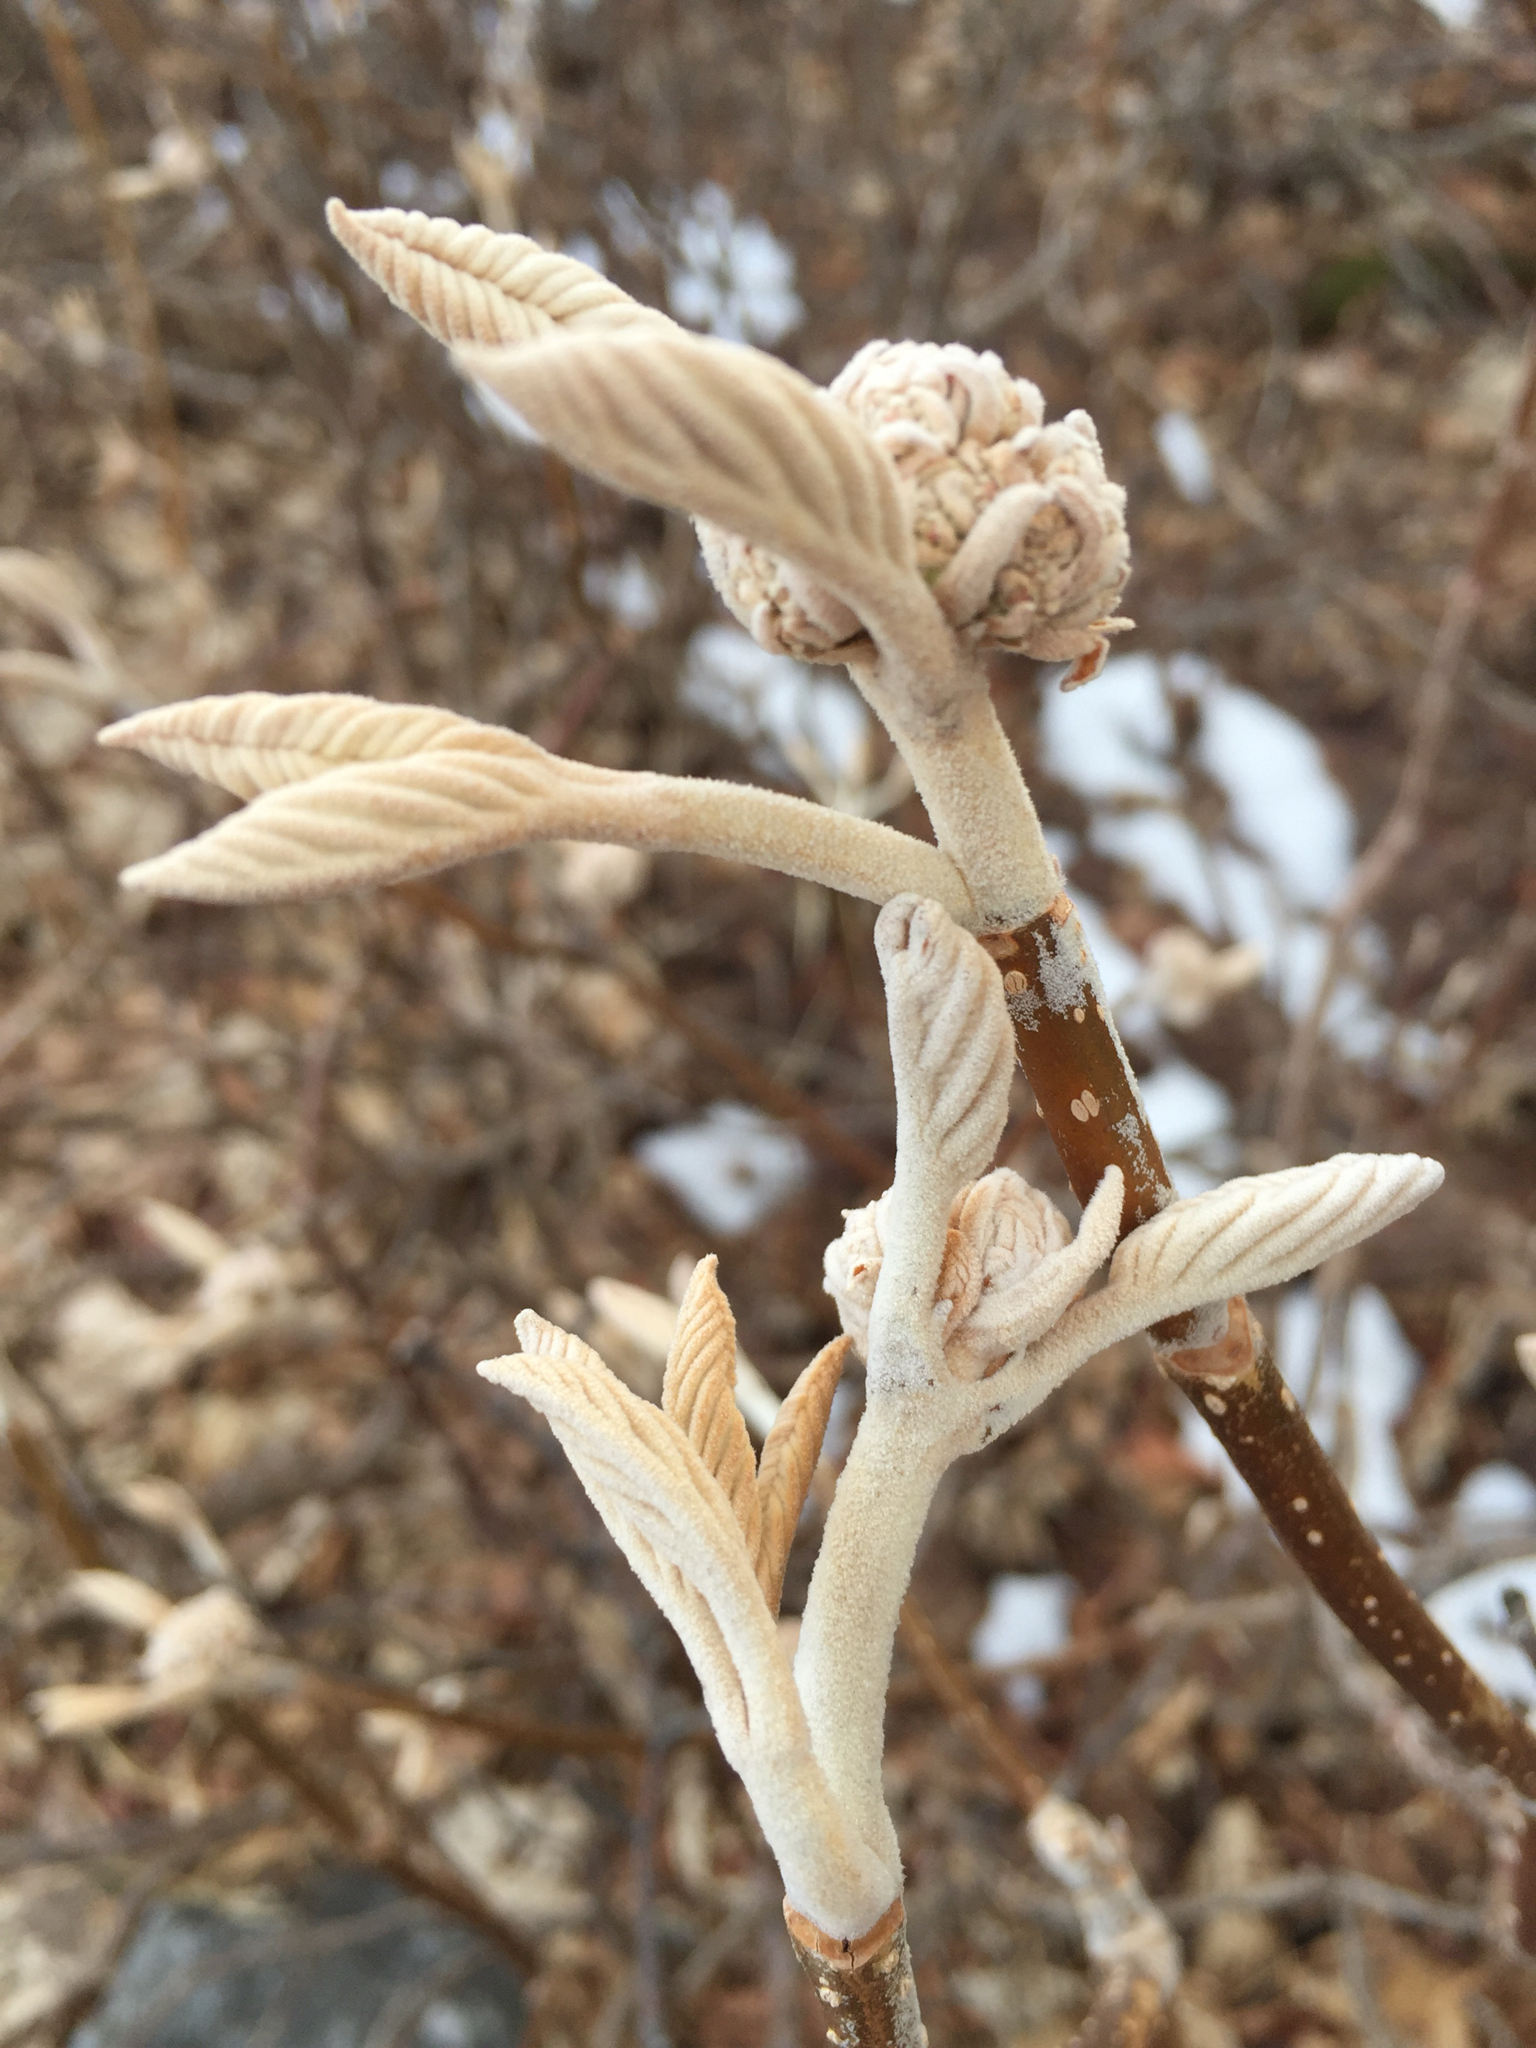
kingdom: Plantae
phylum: Tracheophyta
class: Magnoliopsida
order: Dipsacales
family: Viburnaceae
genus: Viburnum
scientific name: Viburnum lantanoides
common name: Hobblebush
